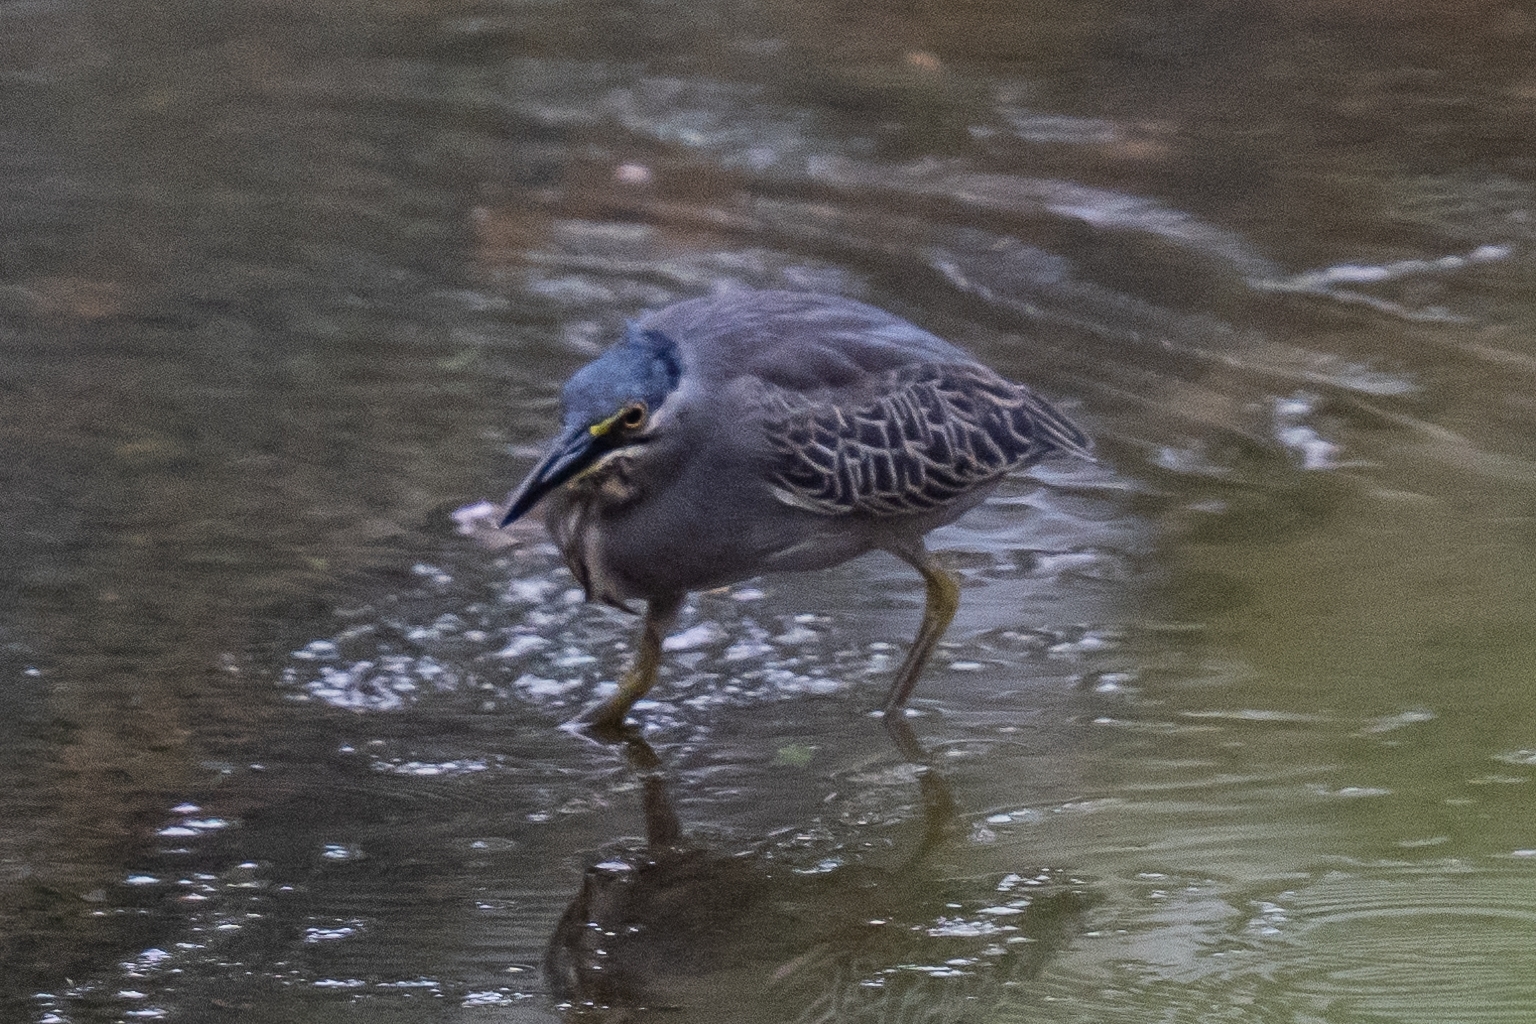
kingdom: Animalia
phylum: Chordata
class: Aves
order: Pelecaniformes
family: Ardeidae
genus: Butorides
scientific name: Butorides striata
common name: Striated heron
